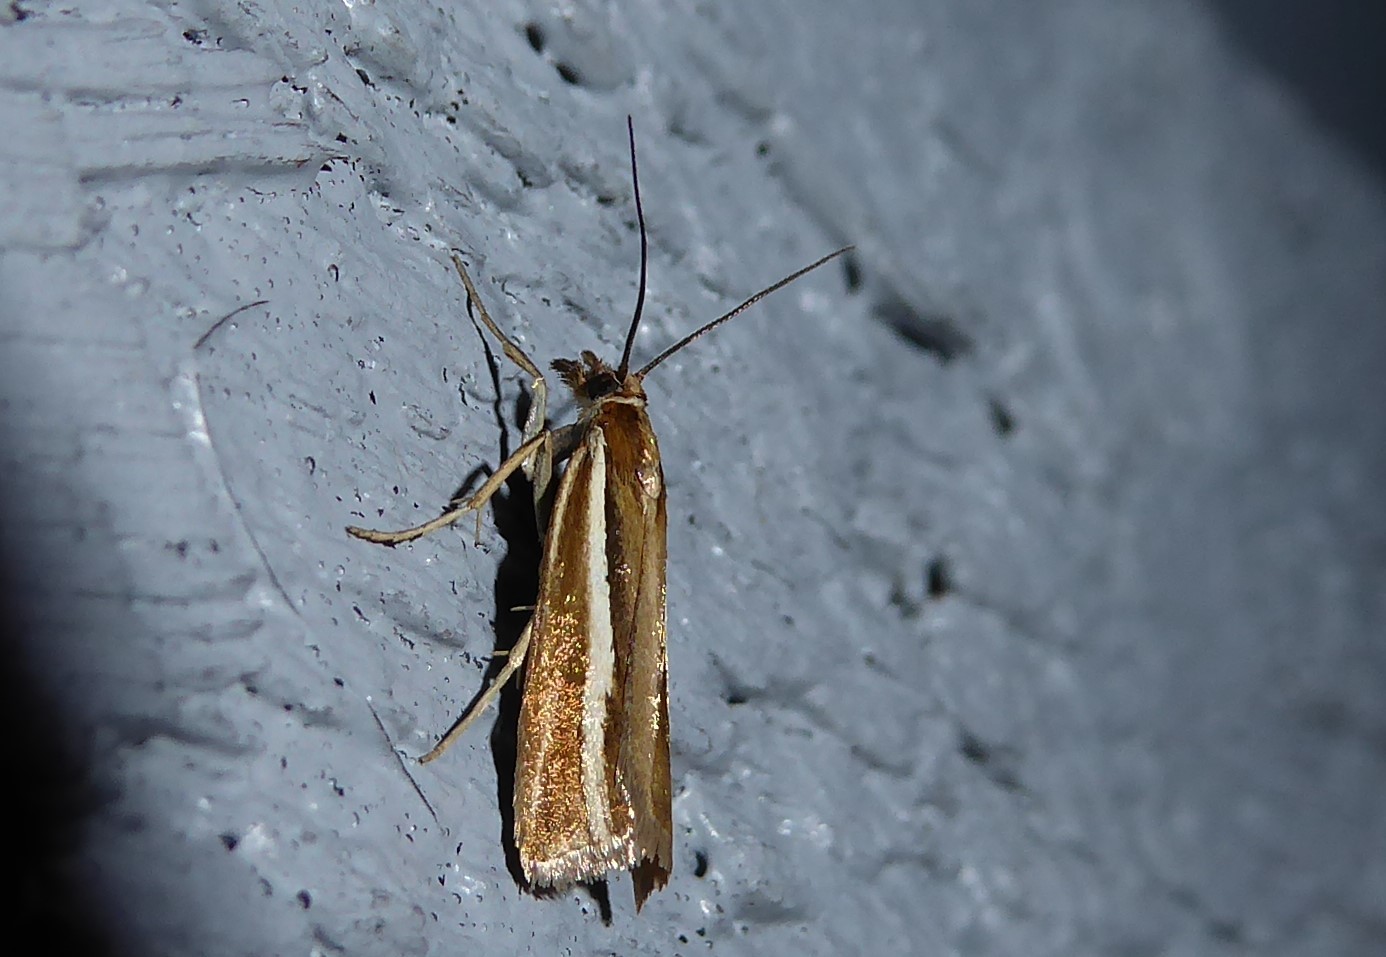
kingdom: Animalia
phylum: Arthropoda
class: Insecta
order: Lepidoptera
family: Crambidae
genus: Orocrambus
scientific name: Orocrambus aethonellus
